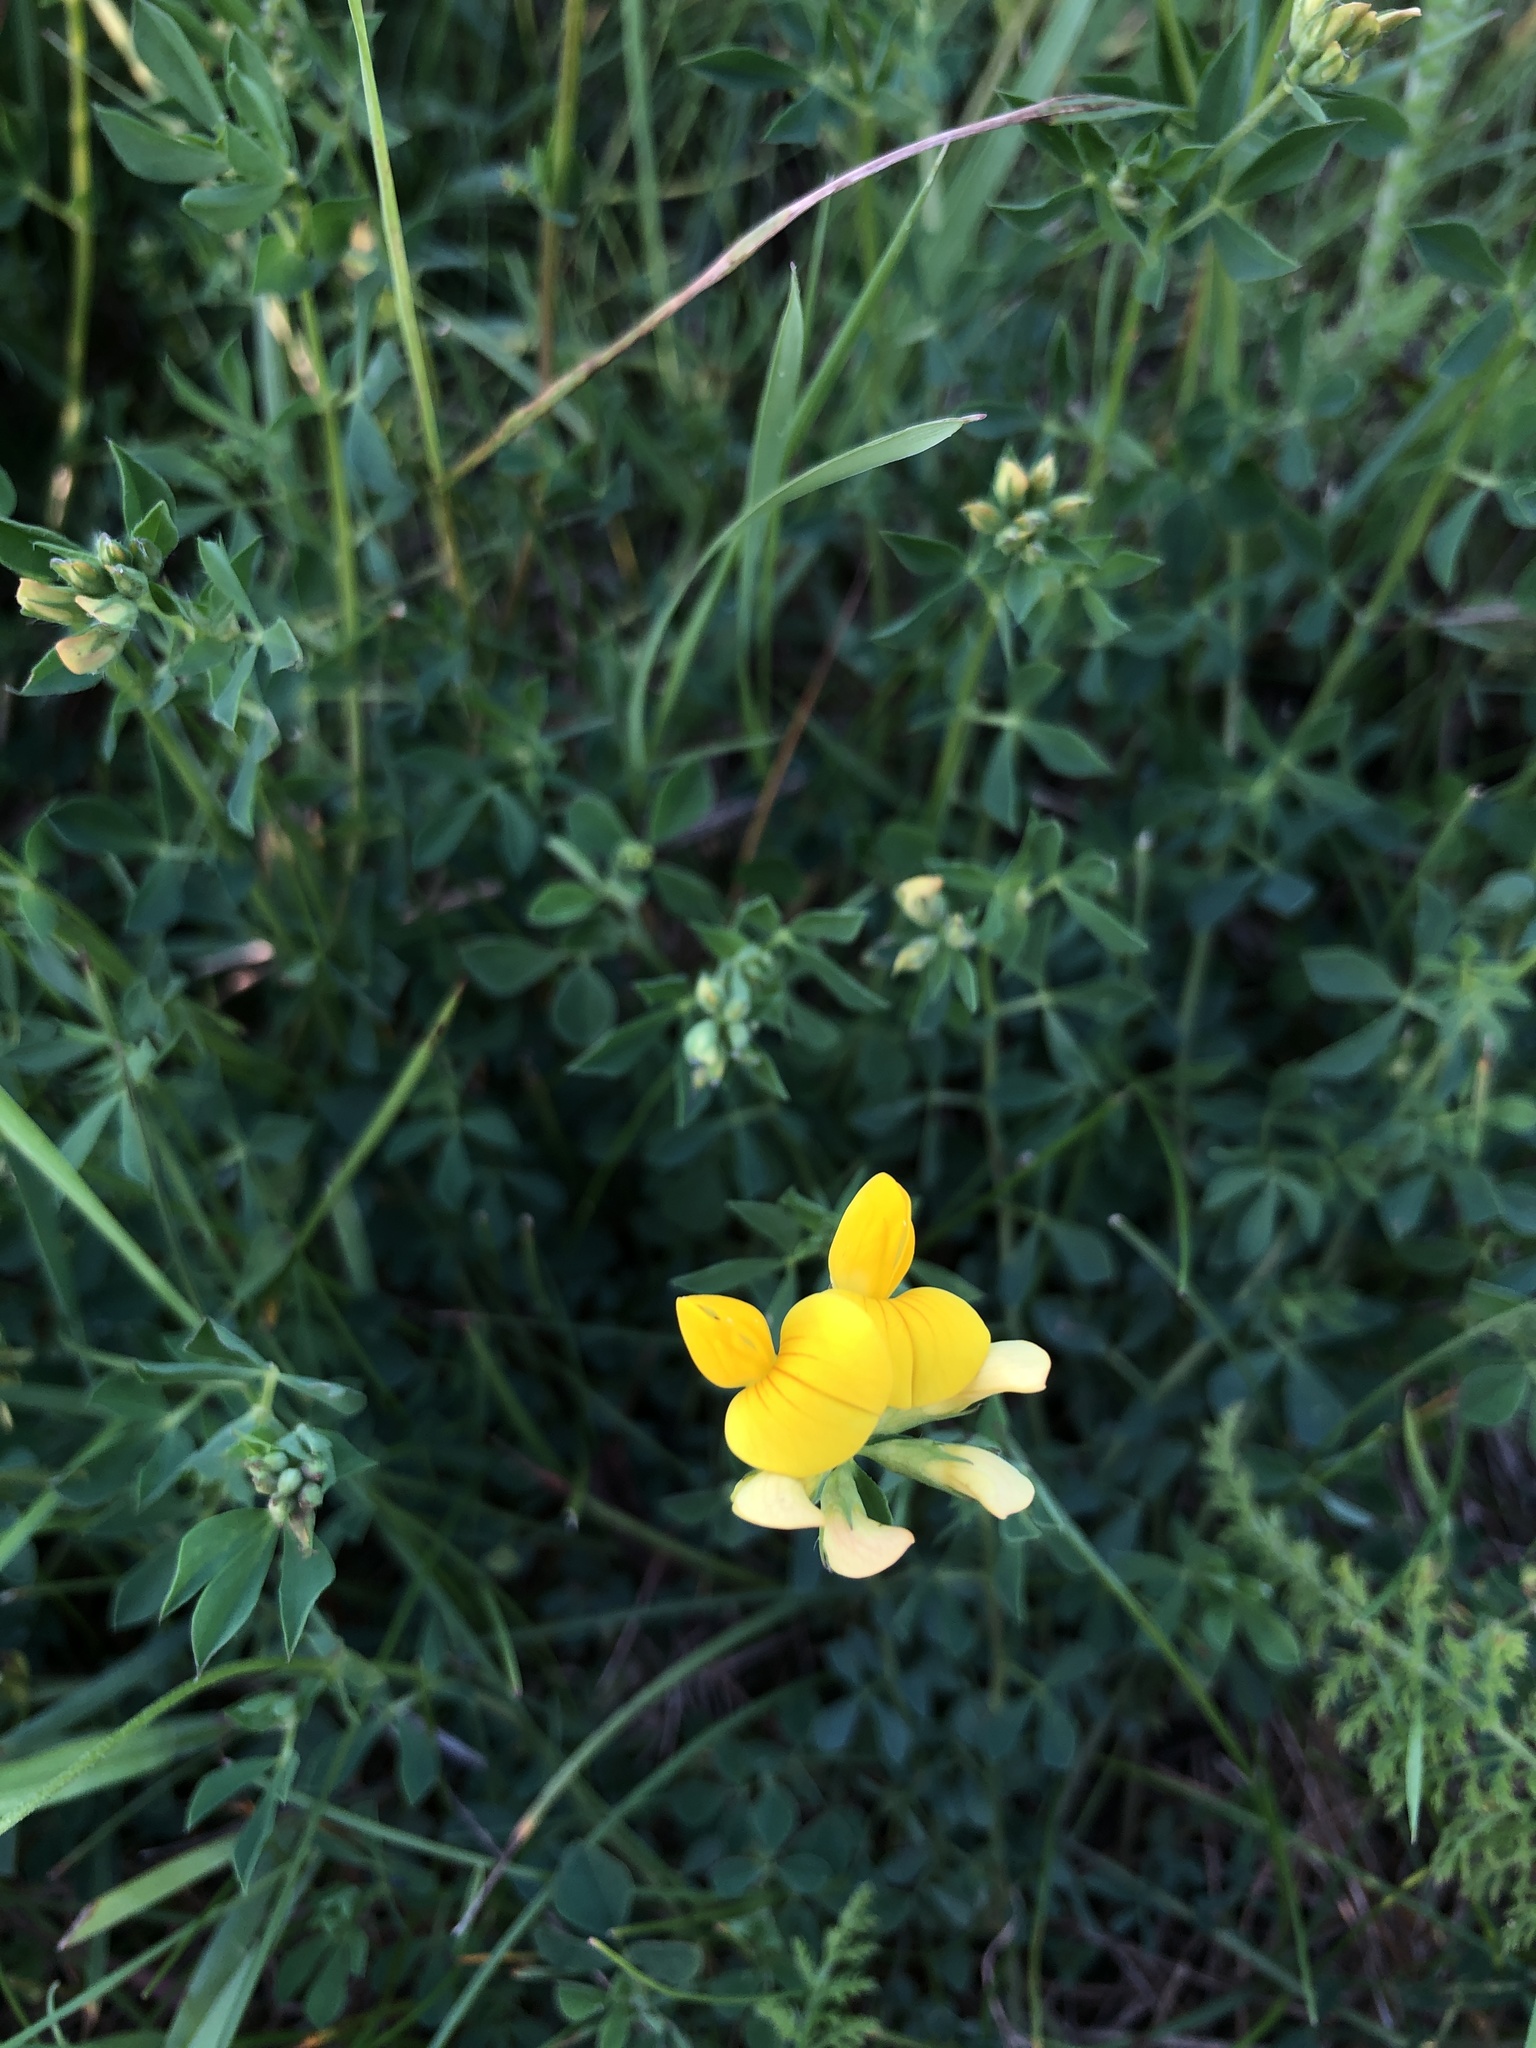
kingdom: Plantae
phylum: Tracheophyta
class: Magnoliopsida
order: Fabales
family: Fabaceae
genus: Lotus
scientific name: Lotus corniculatus
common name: Common bird's-foot-trefoil
